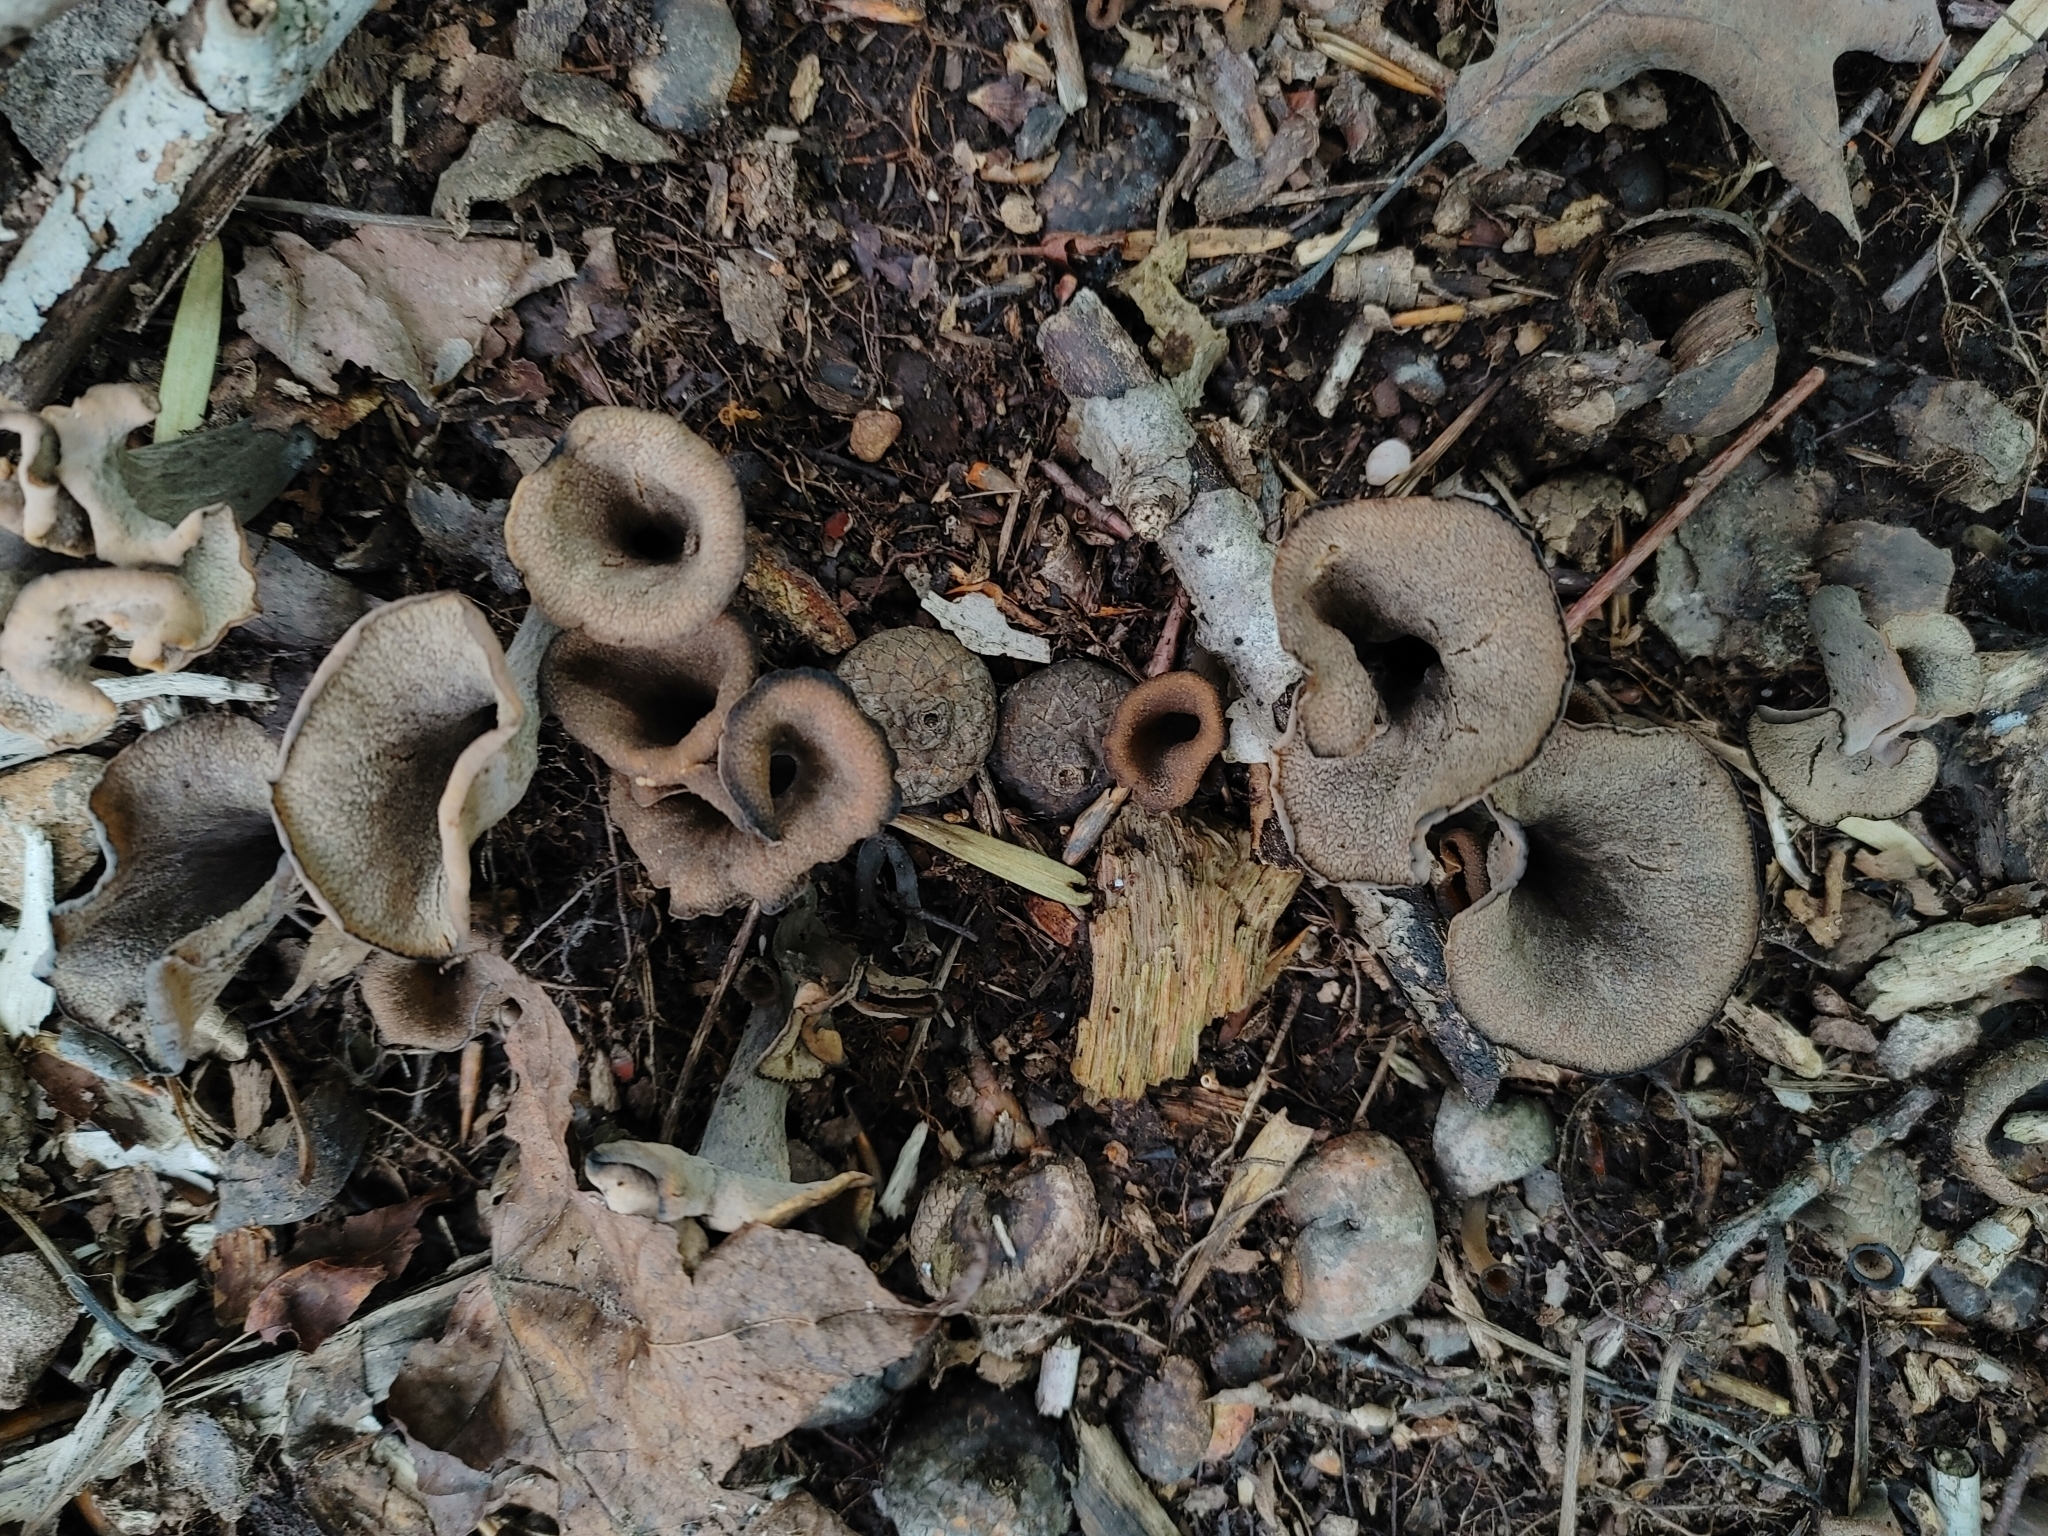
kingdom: Fungi
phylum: Basidiomycota
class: Agaricomycetes
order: Cantharellales
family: Hydnaceae
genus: Craterellus
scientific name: Craterellus cornucopioides
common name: Horn of plenty
